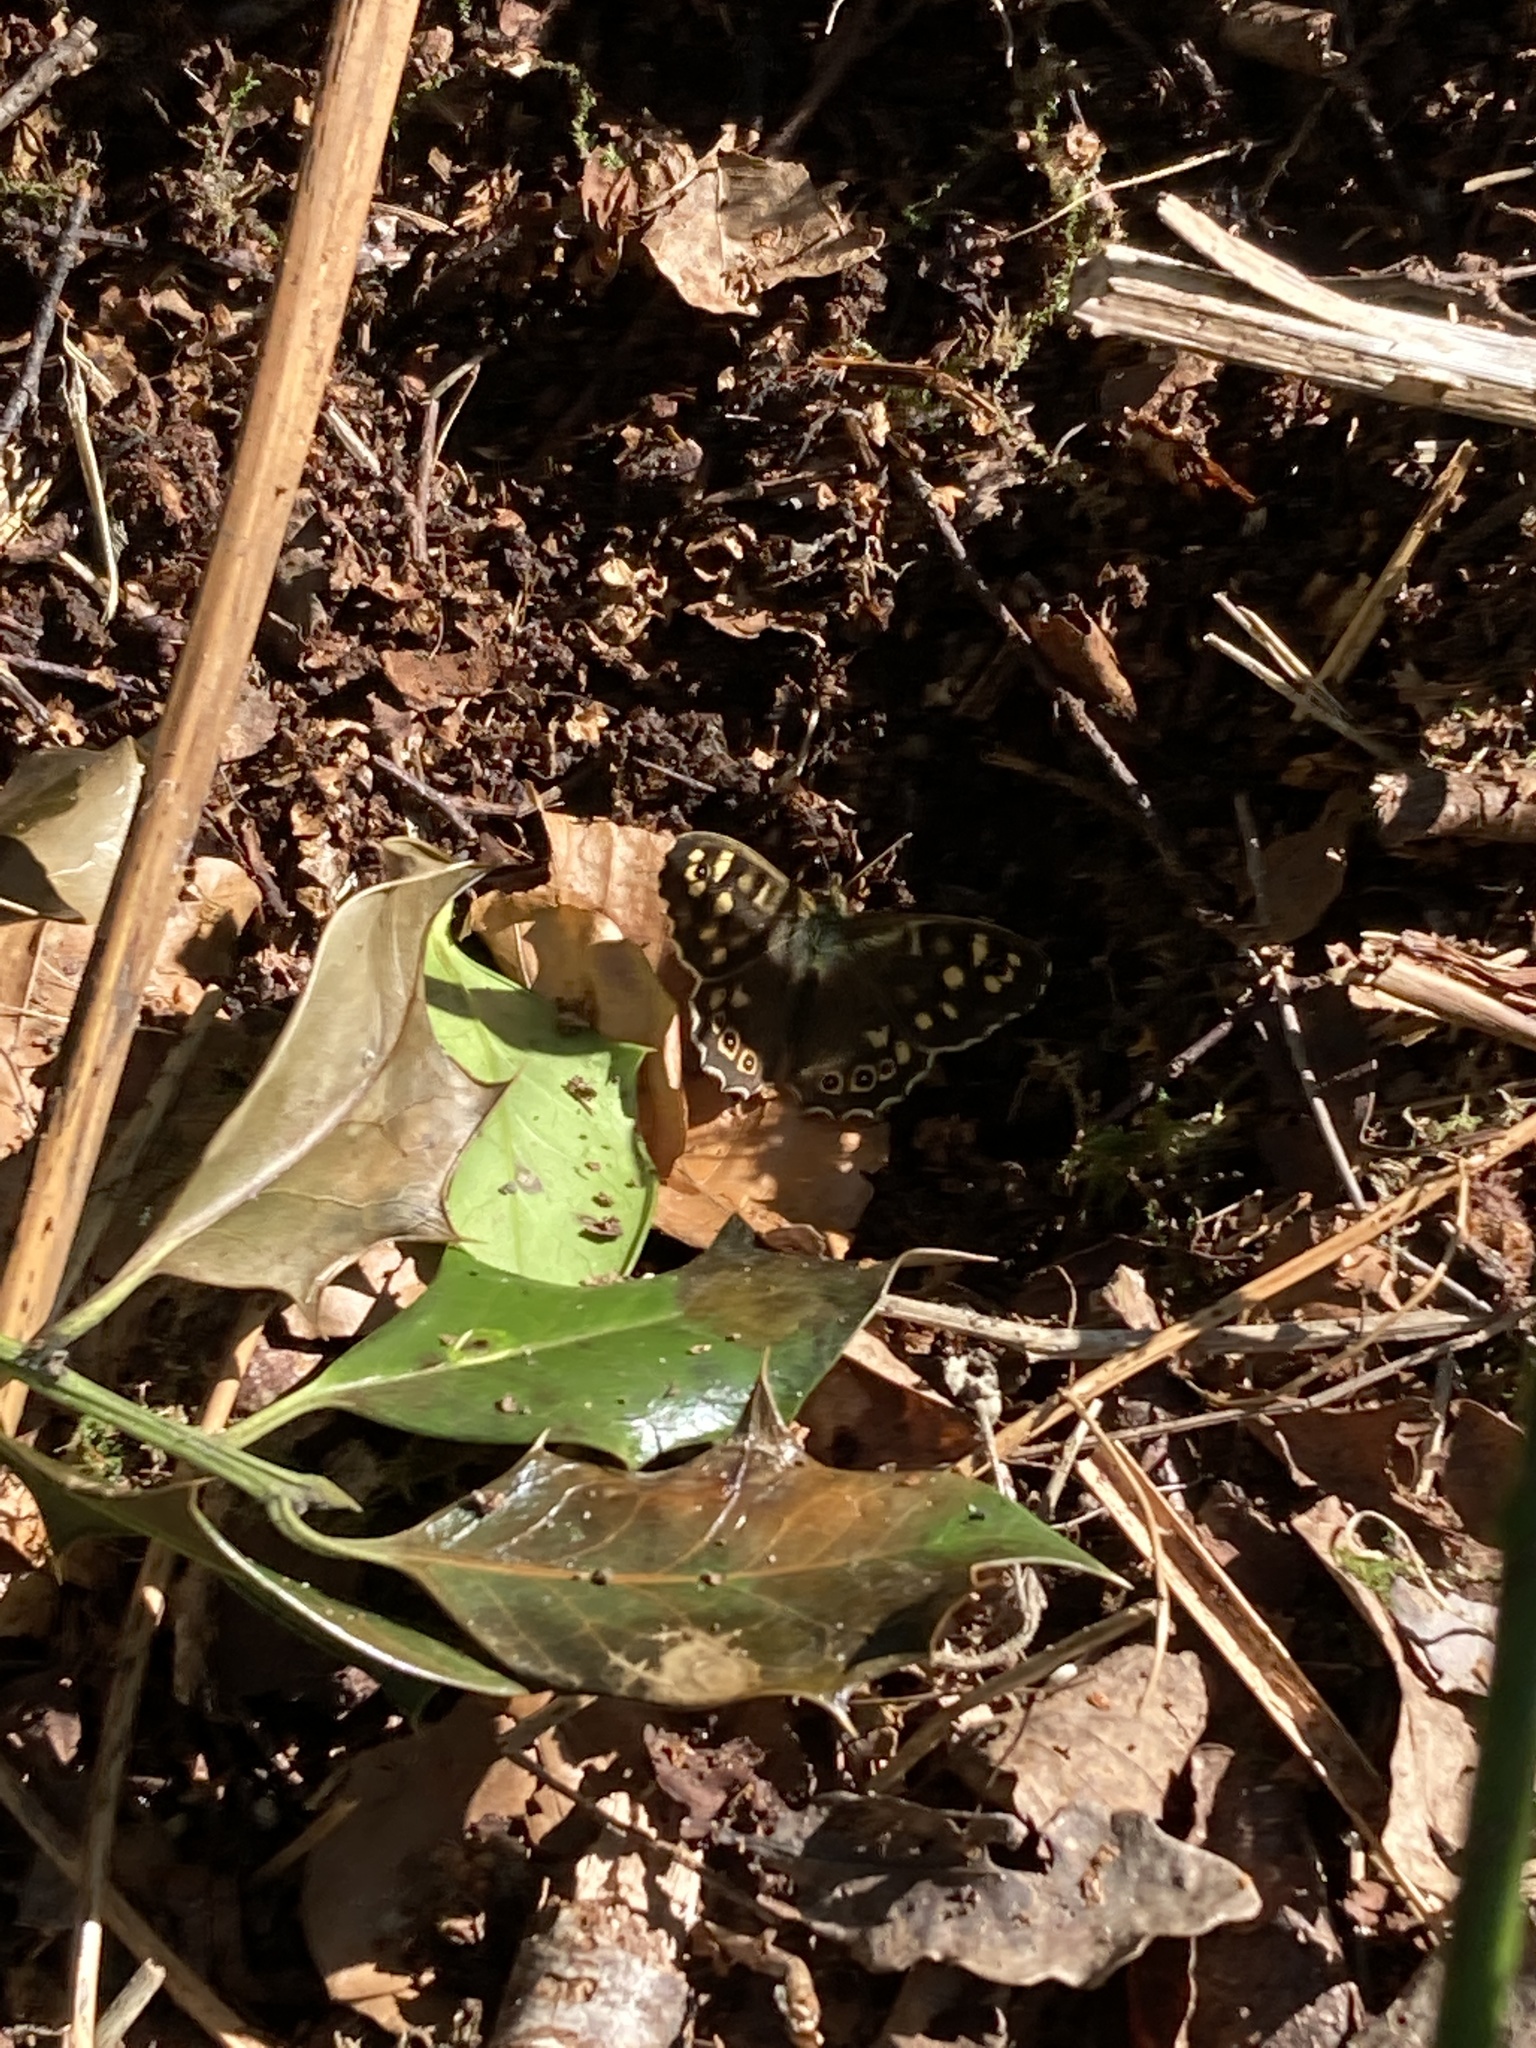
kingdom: Animalia
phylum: Arthropoda
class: Insecta
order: Lepidoptera
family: Nymphalidae
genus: Pararge
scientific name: Pararge aegeria
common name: Speckled wood
